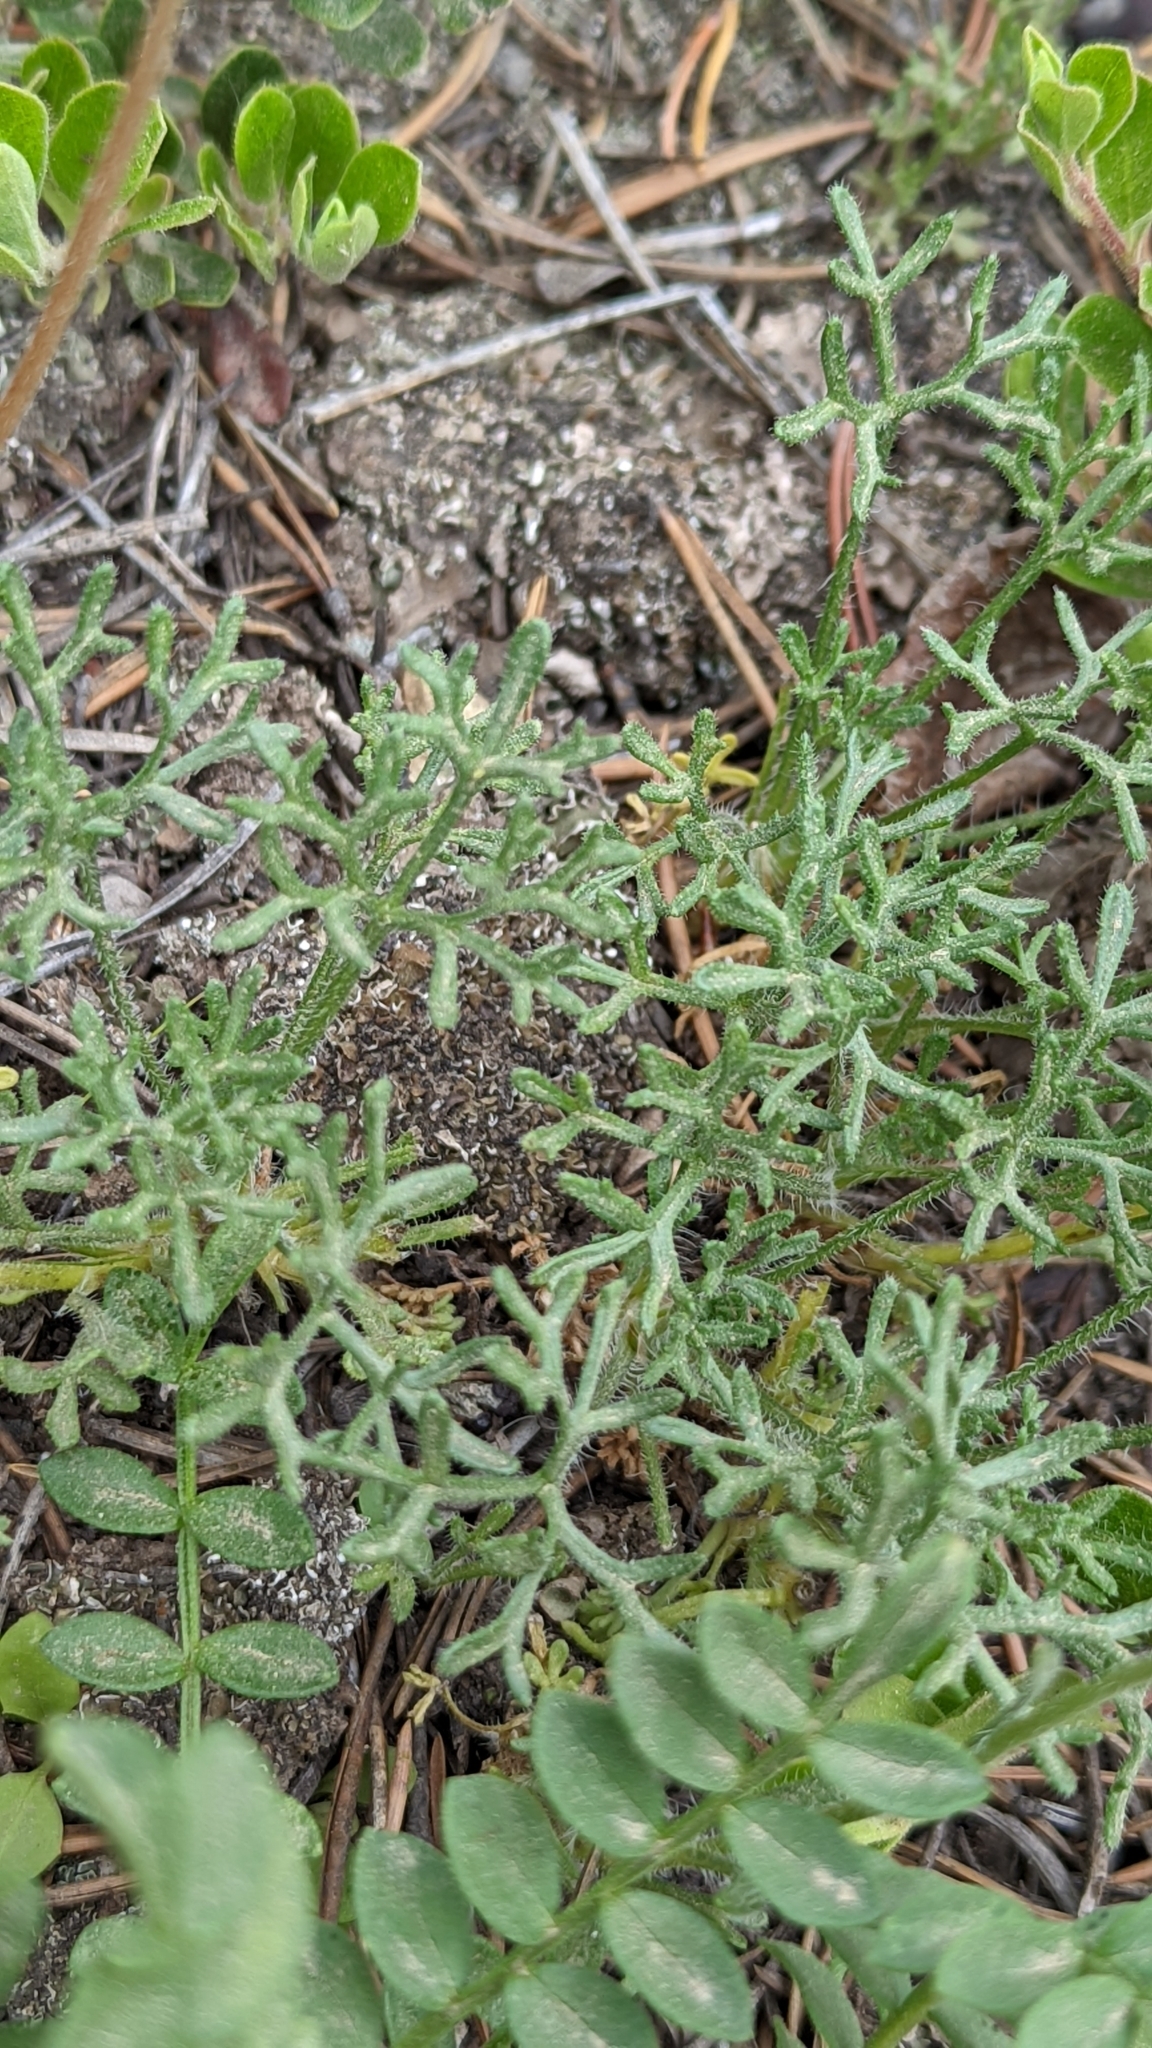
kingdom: Plantae
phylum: Tracheophyta
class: Magnoliopsida
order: Asterales
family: Asteraceae
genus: Erigeron
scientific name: Erigeron compositus
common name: Dwarf mountain fleabane
